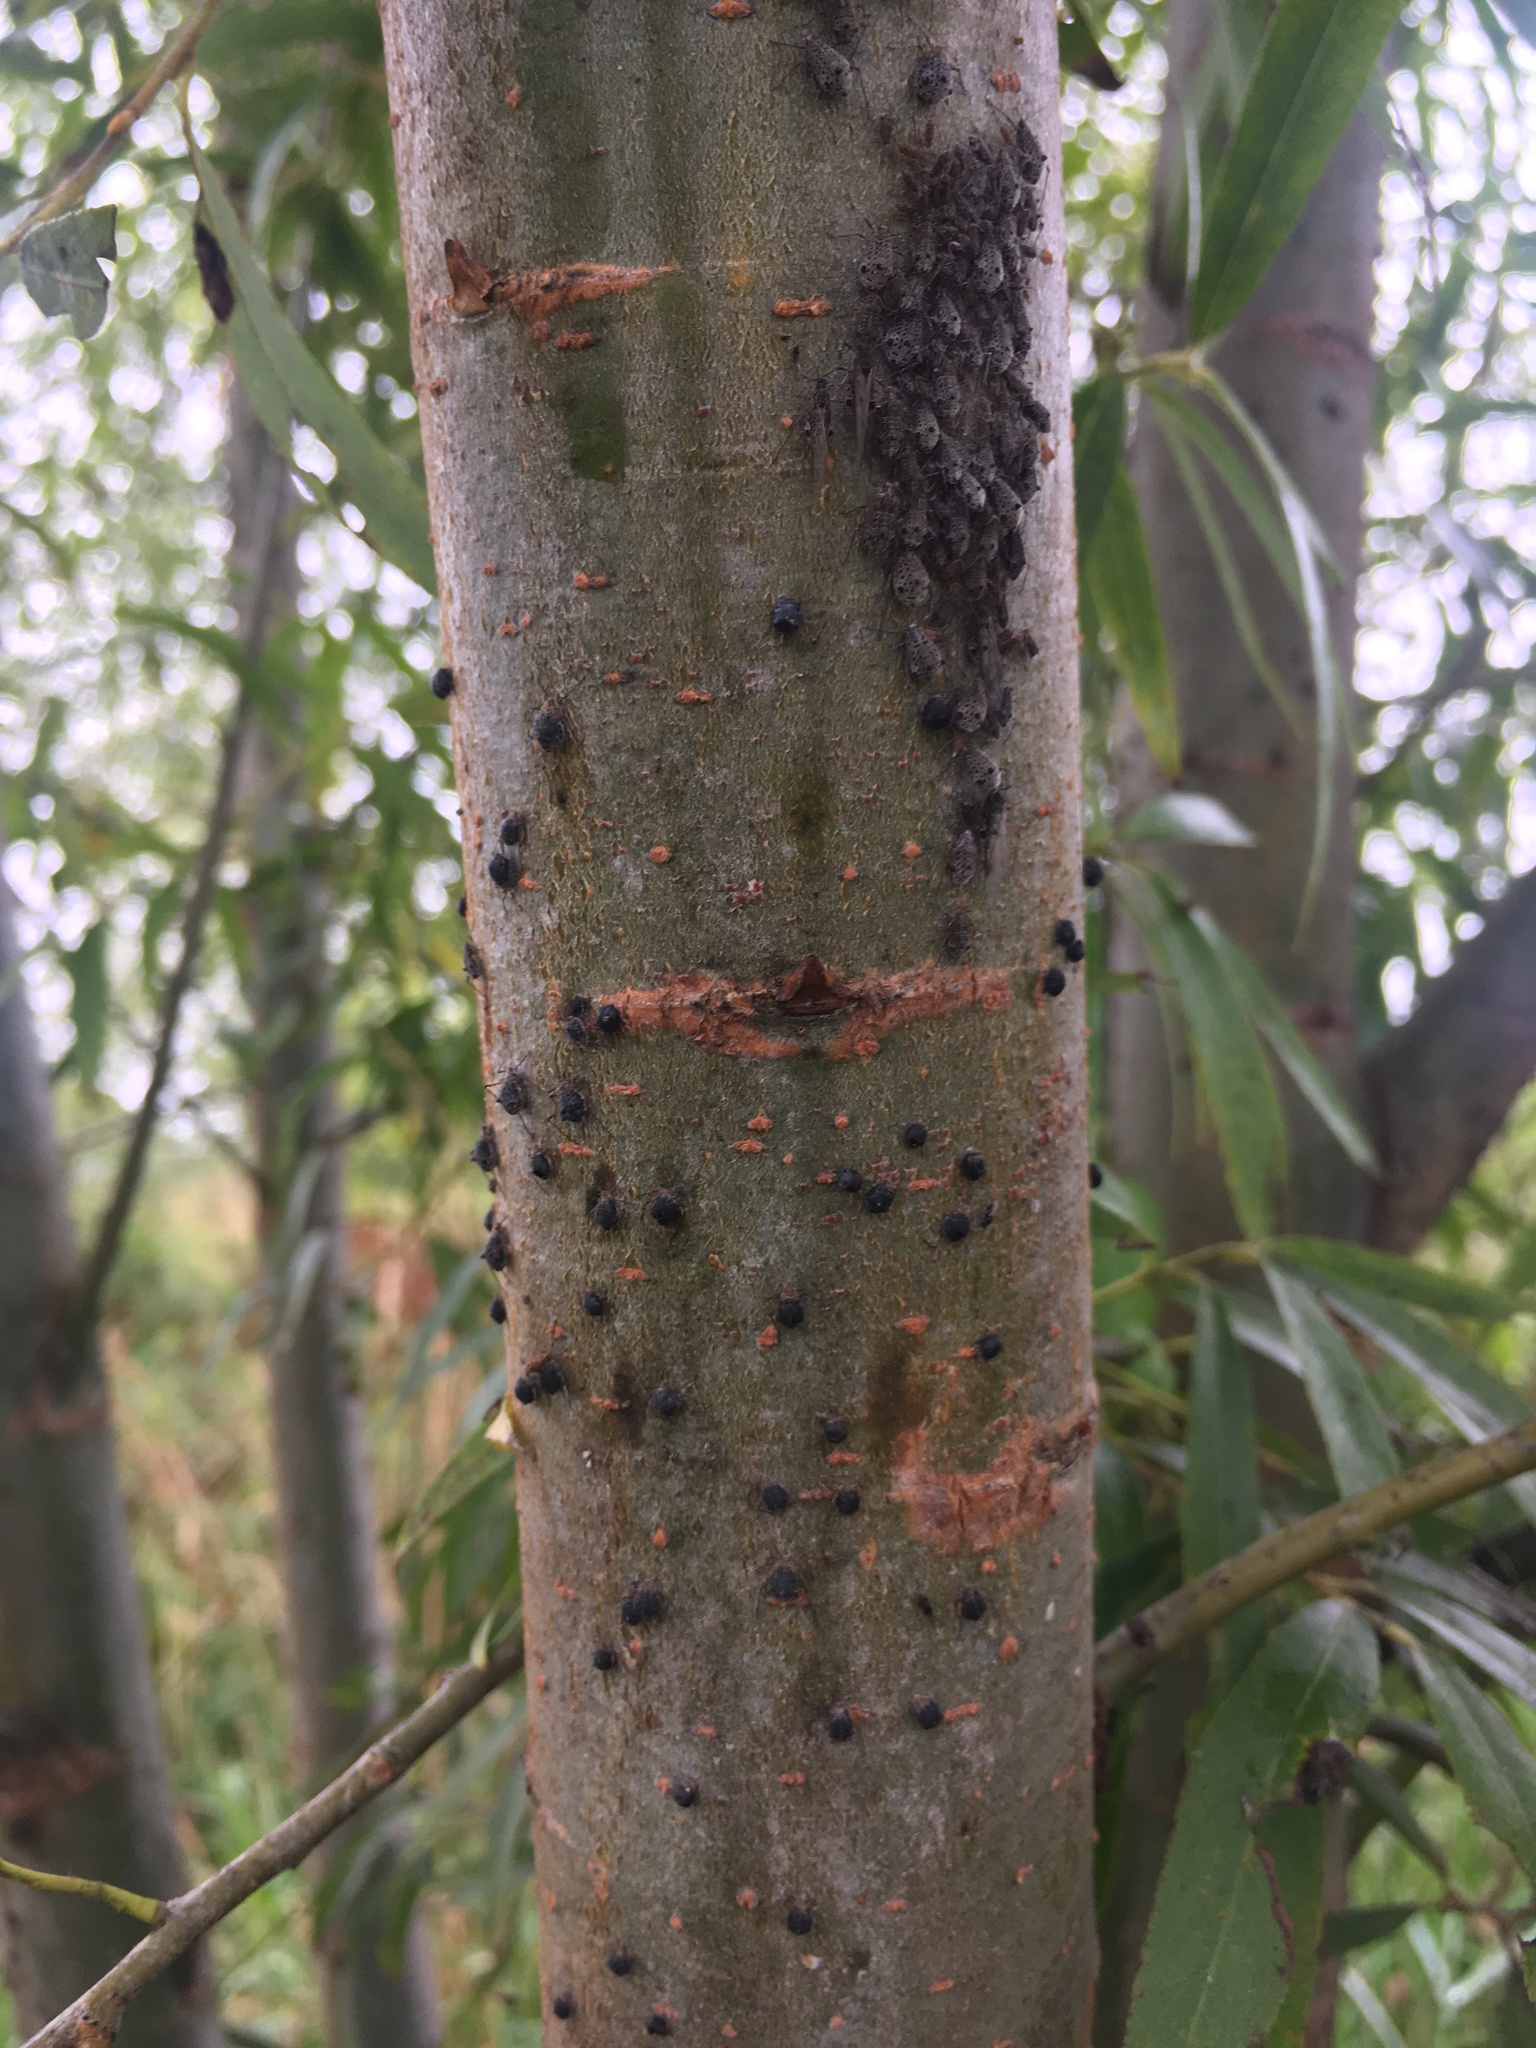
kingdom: Animalia
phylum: Arthropoda
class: Insecta
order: Hymenoptera
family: Braconidae
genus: Pauesia
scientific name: Pauesia nigrovaria
